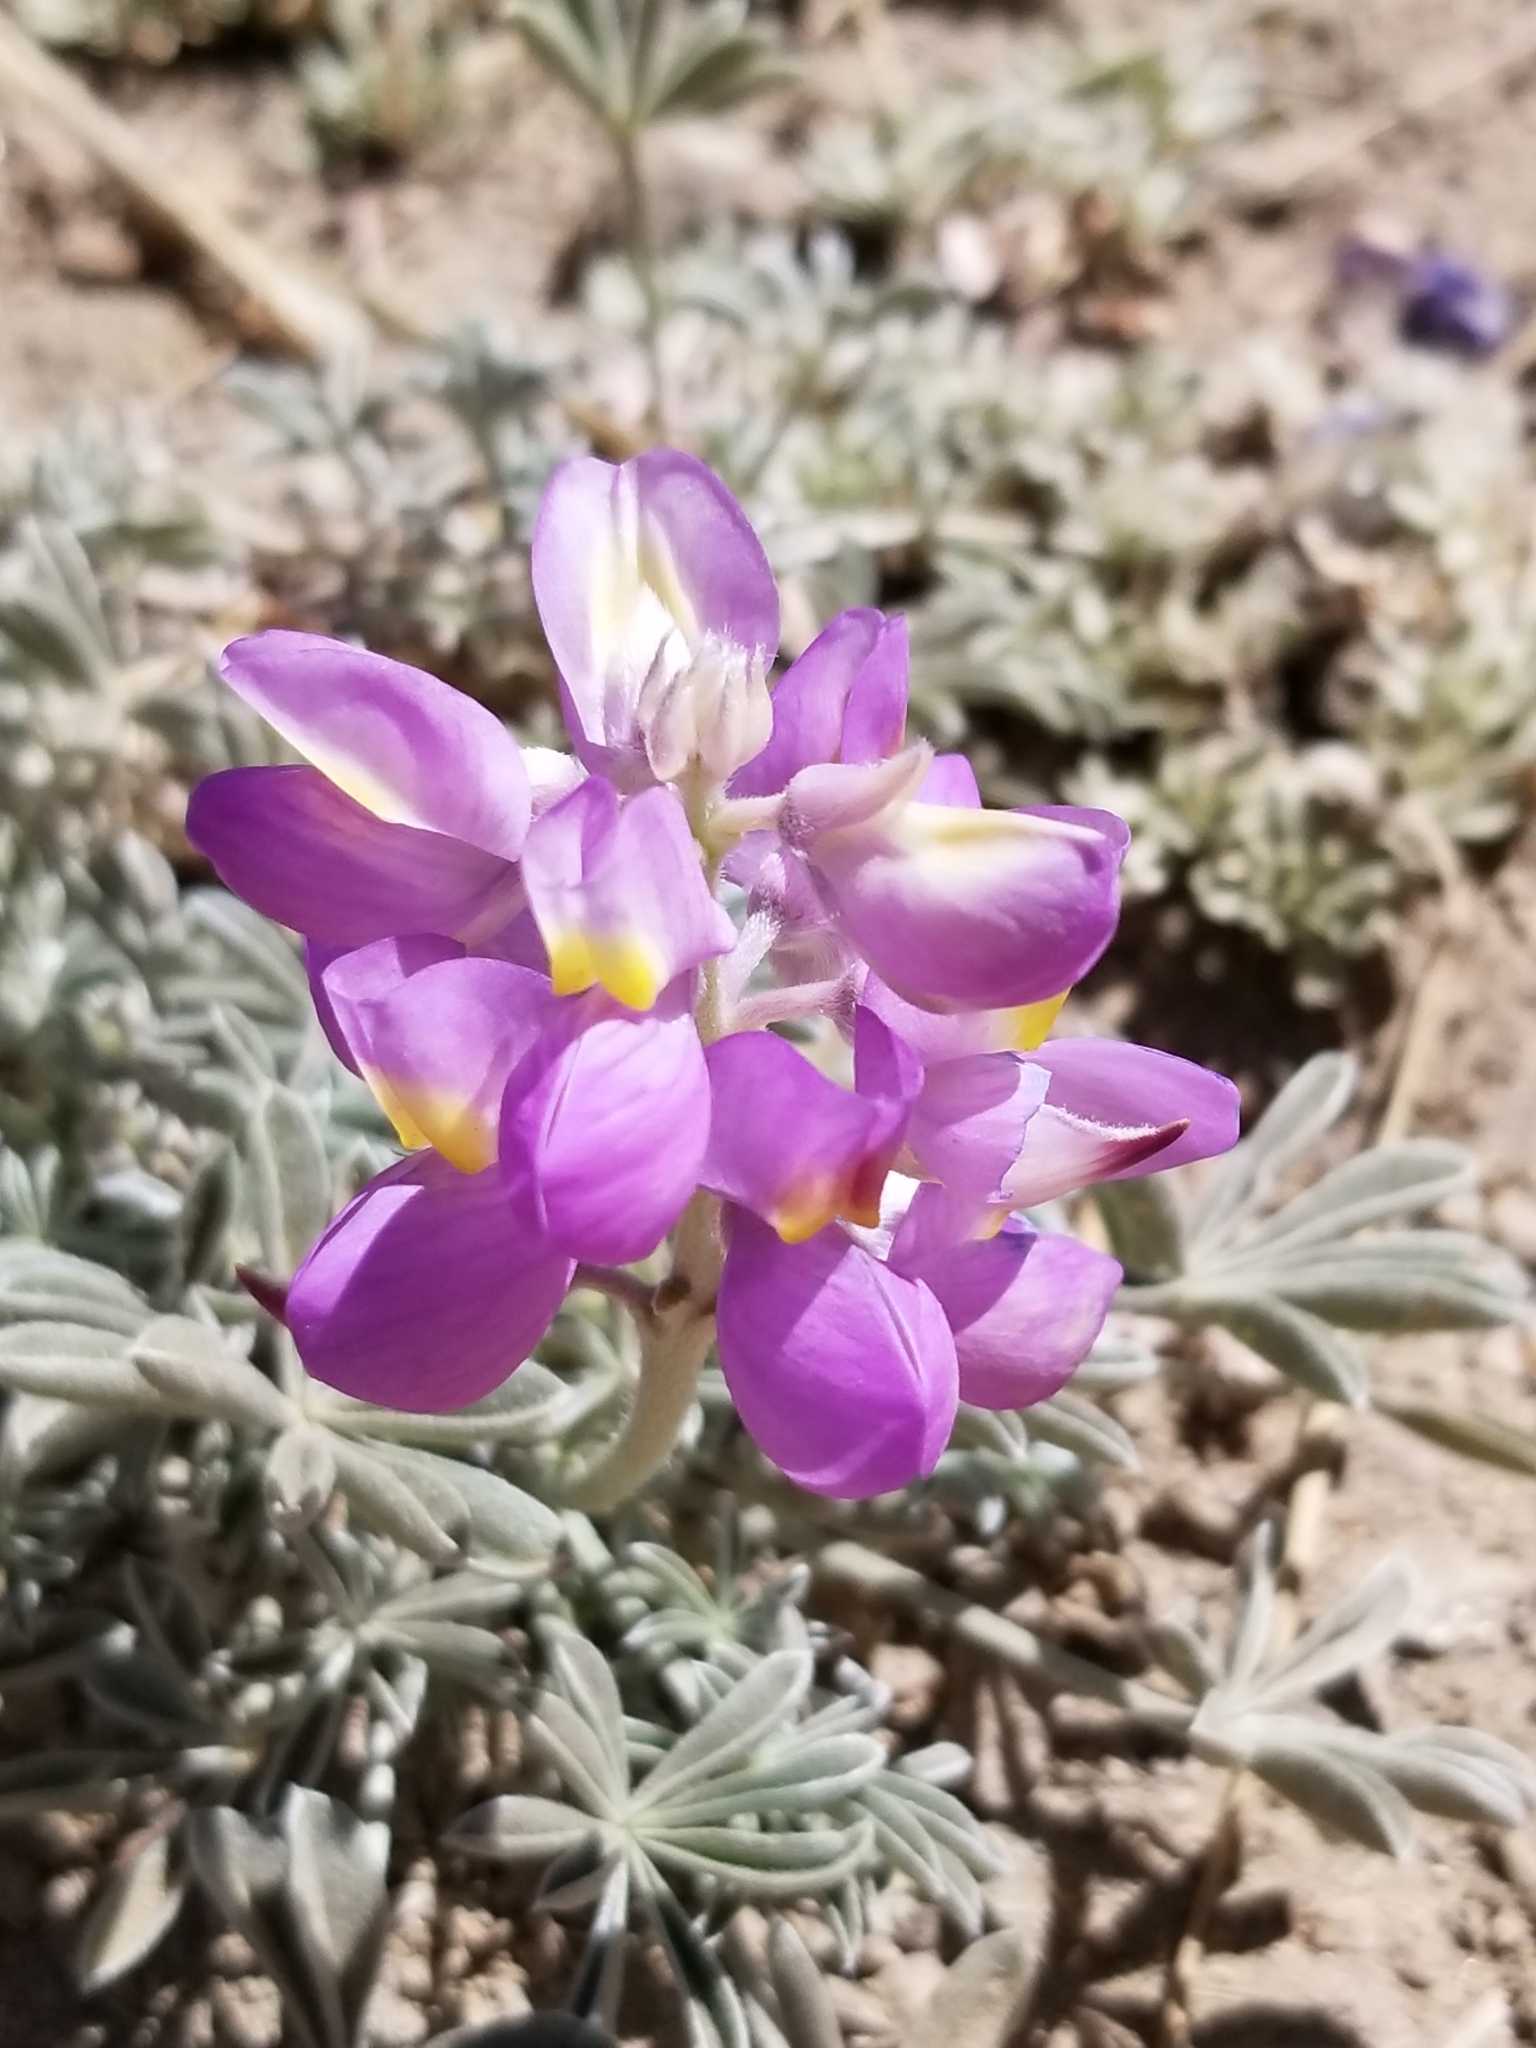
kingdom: Plantae
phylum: Tracheophyta
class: Magnoliopsida
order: Fabales
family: Fabaceae
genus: Lupinus
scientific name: Lupinus excubitus
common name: Grape soda lupine
